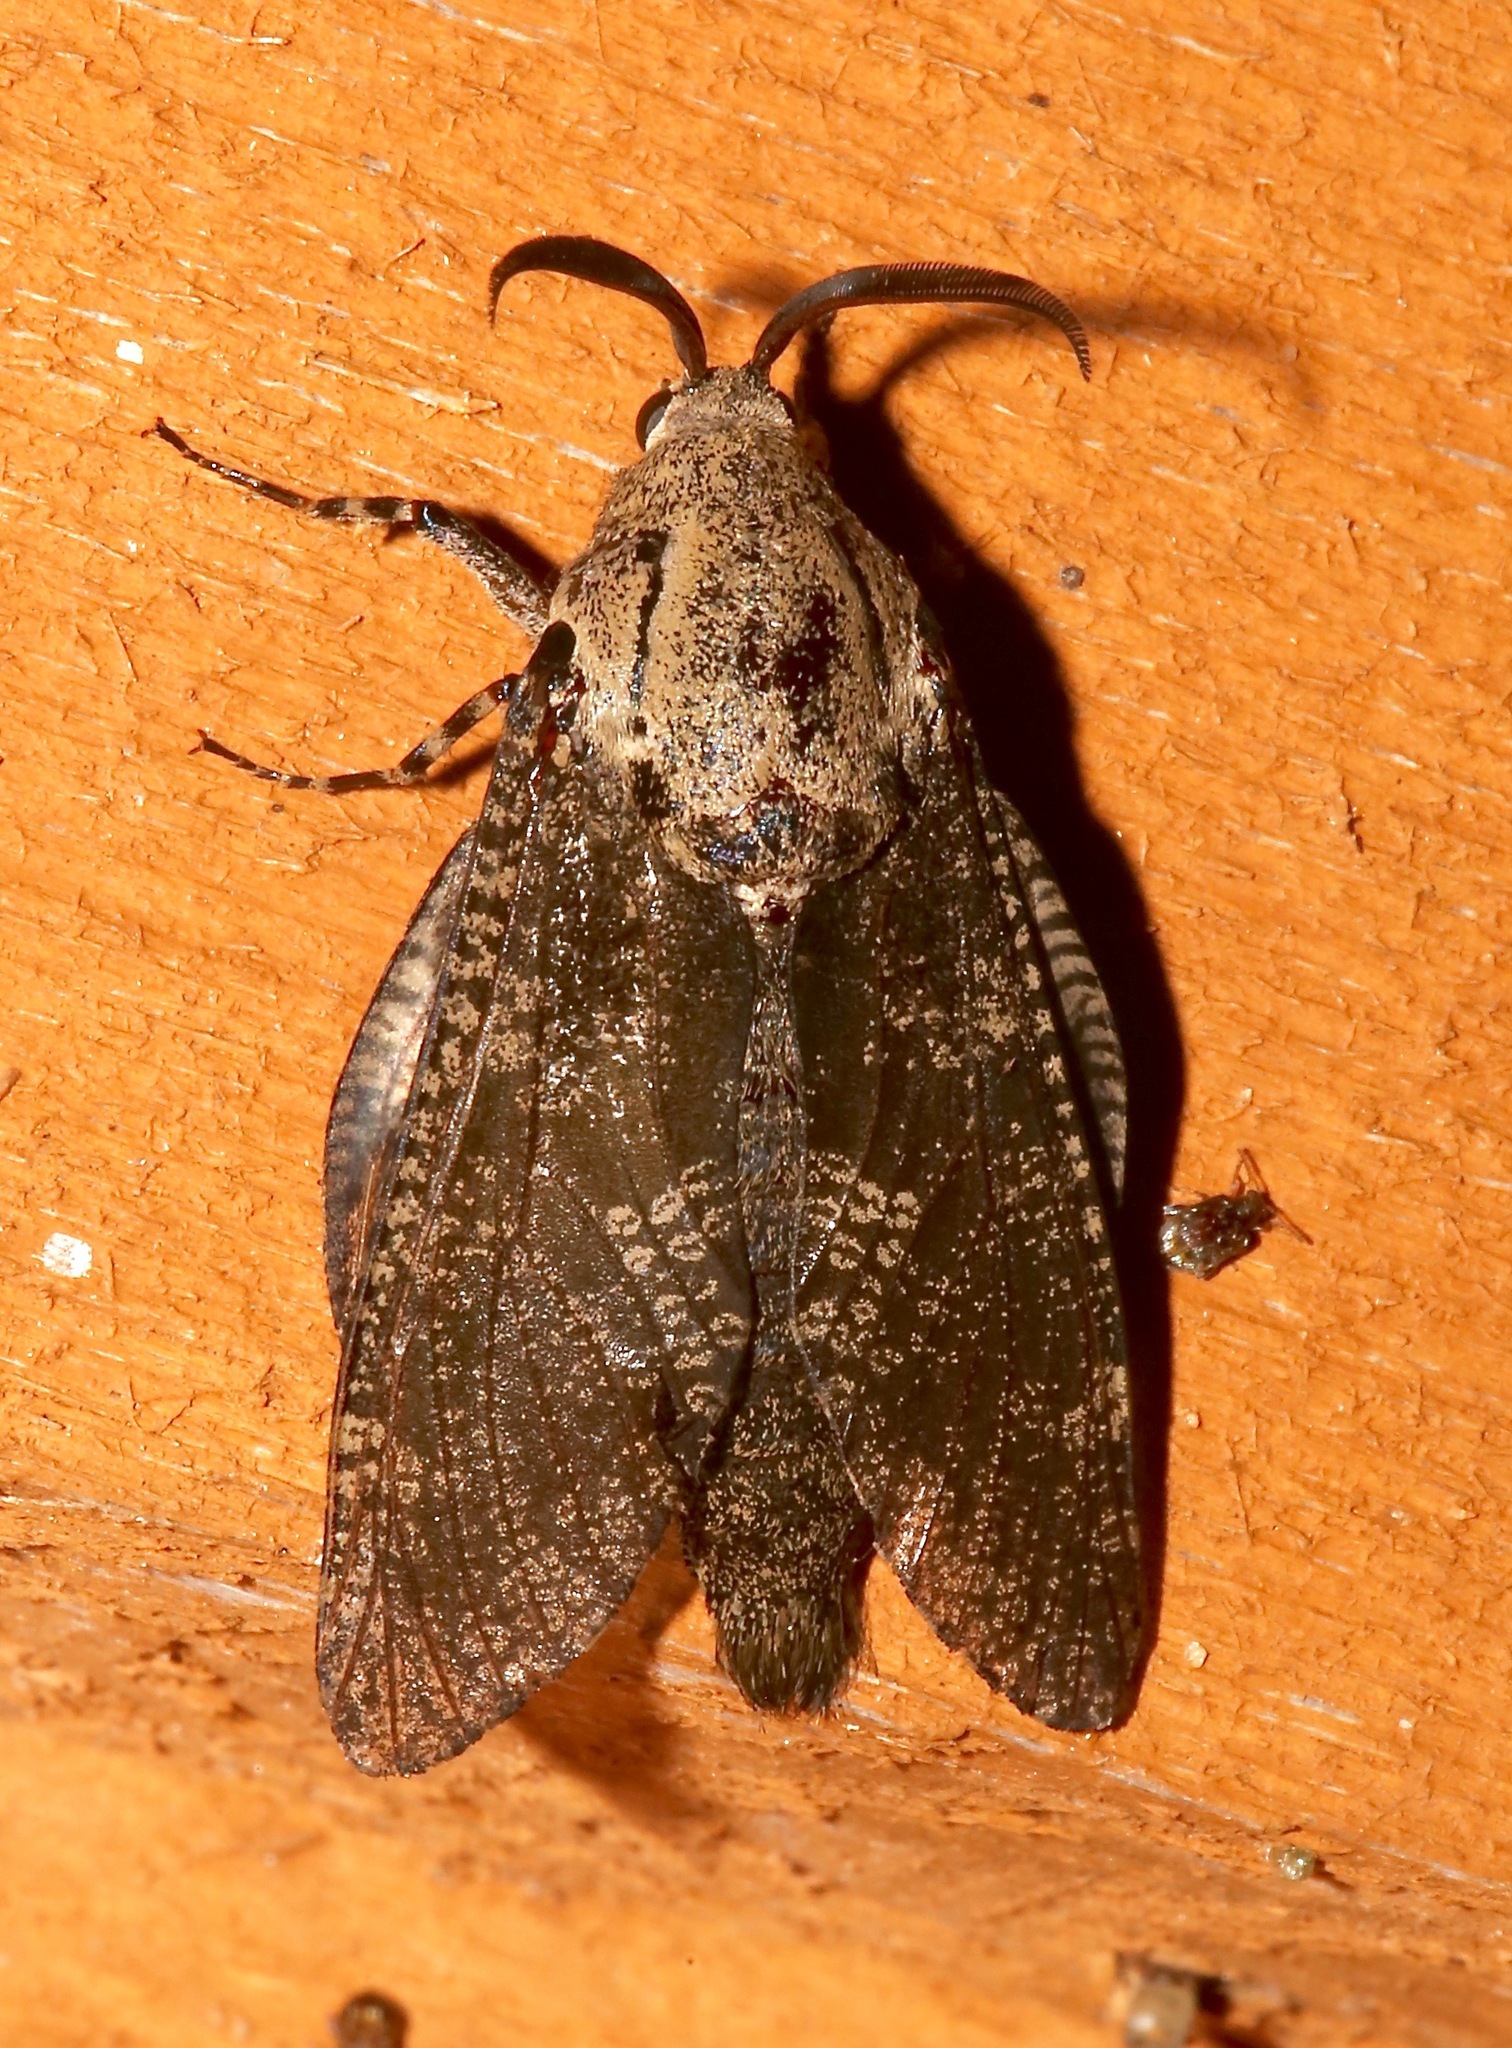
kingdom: Animalia
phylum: Arthropoda
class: Insecta
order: Lepidoptera
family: Cossidae
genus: Prionoxystus
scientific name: Prionoxystus robiniae
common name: Carpenterworm
